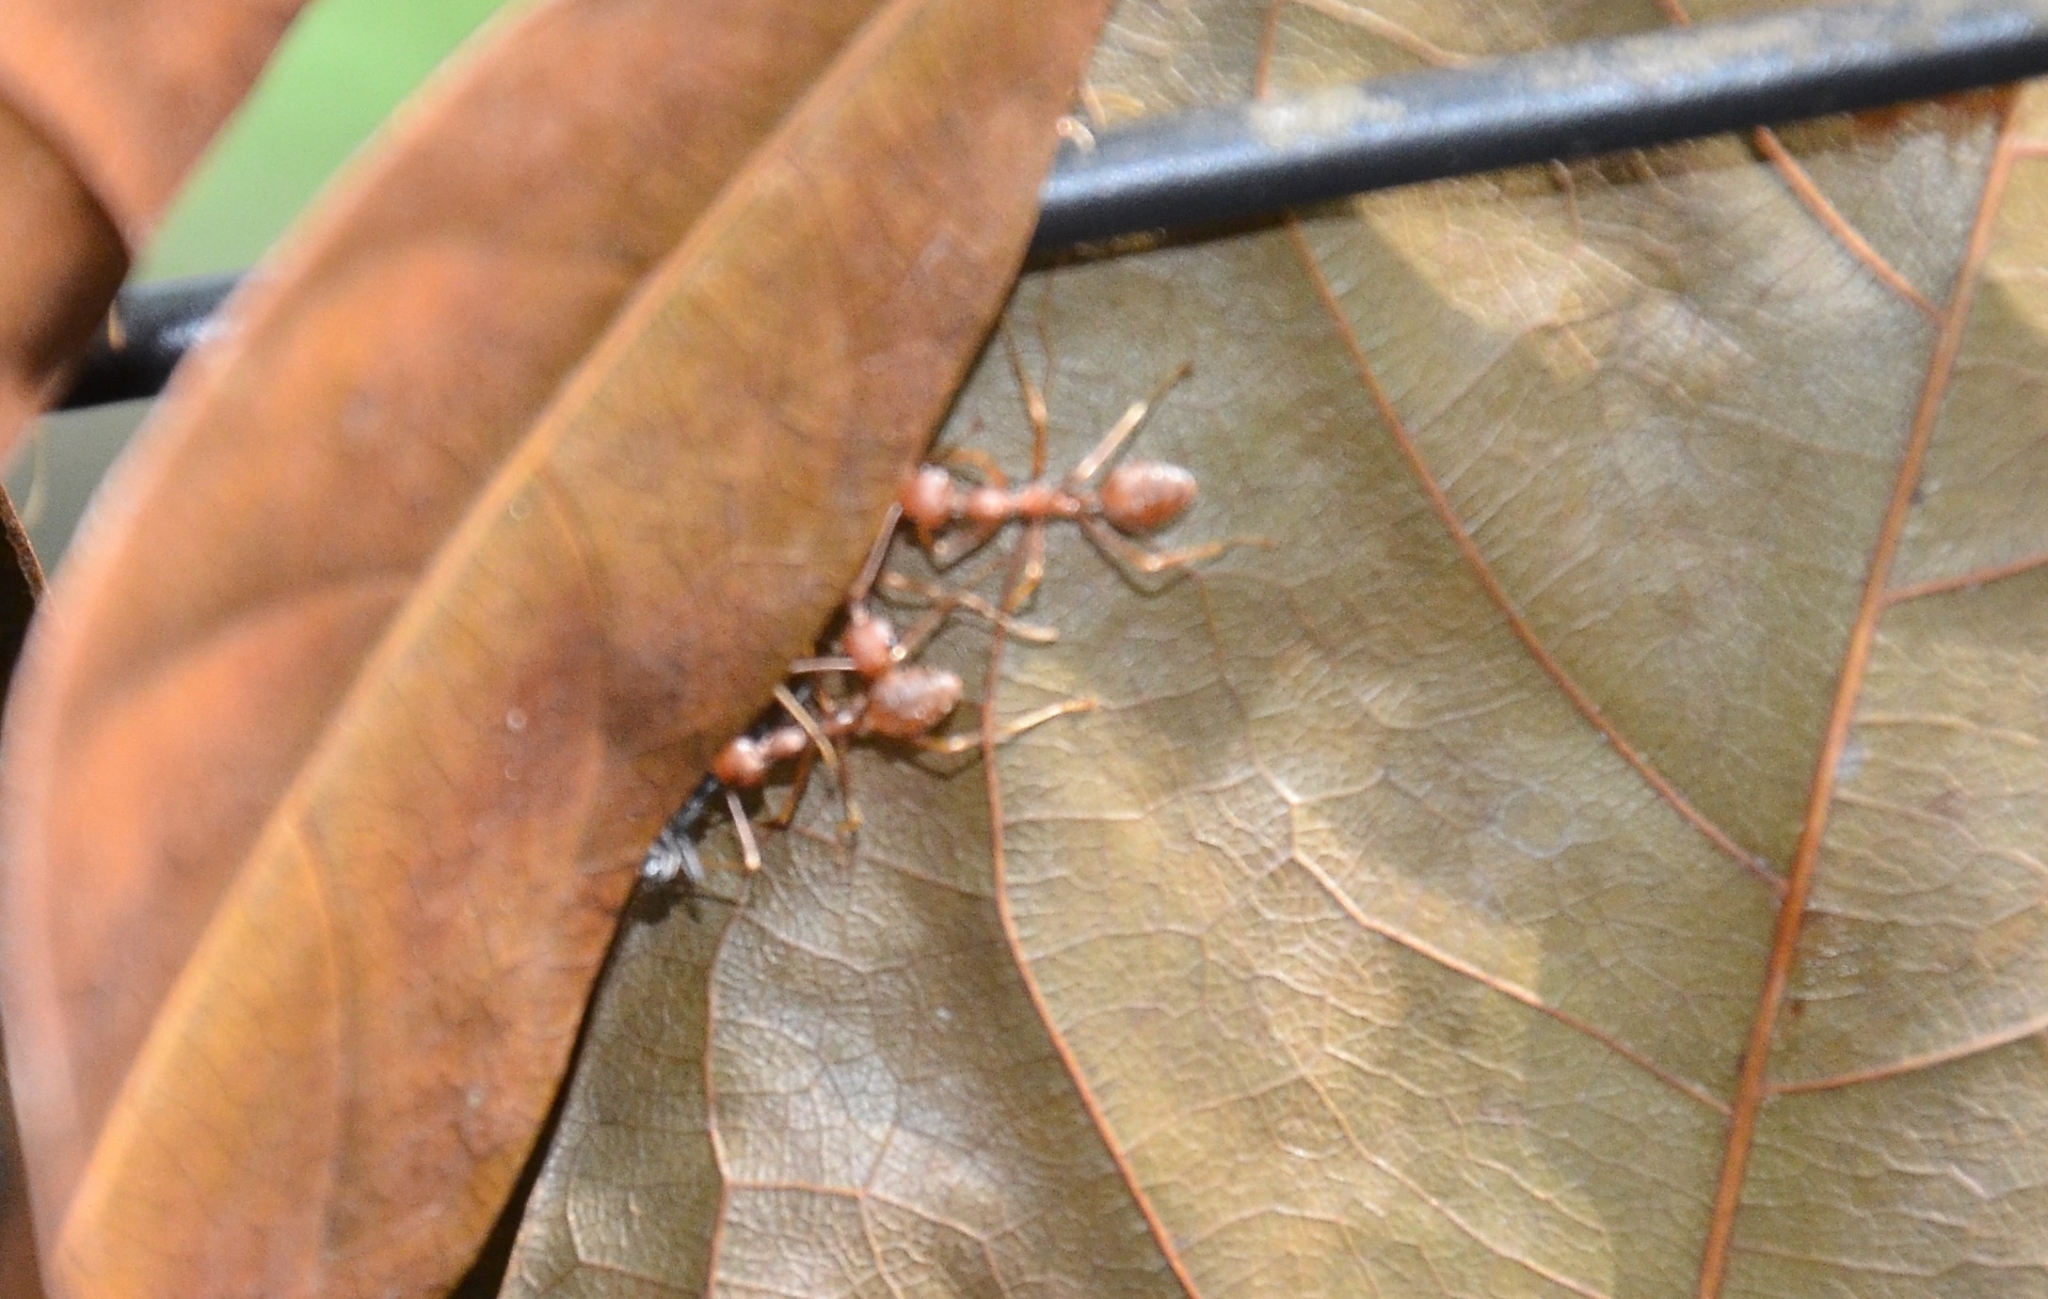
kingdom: Animalia
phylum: Arthropoda
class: Insecta
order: Hymenoptera
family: Formicidae
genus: Oecophylla
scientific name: Oecophylla smaragdina
